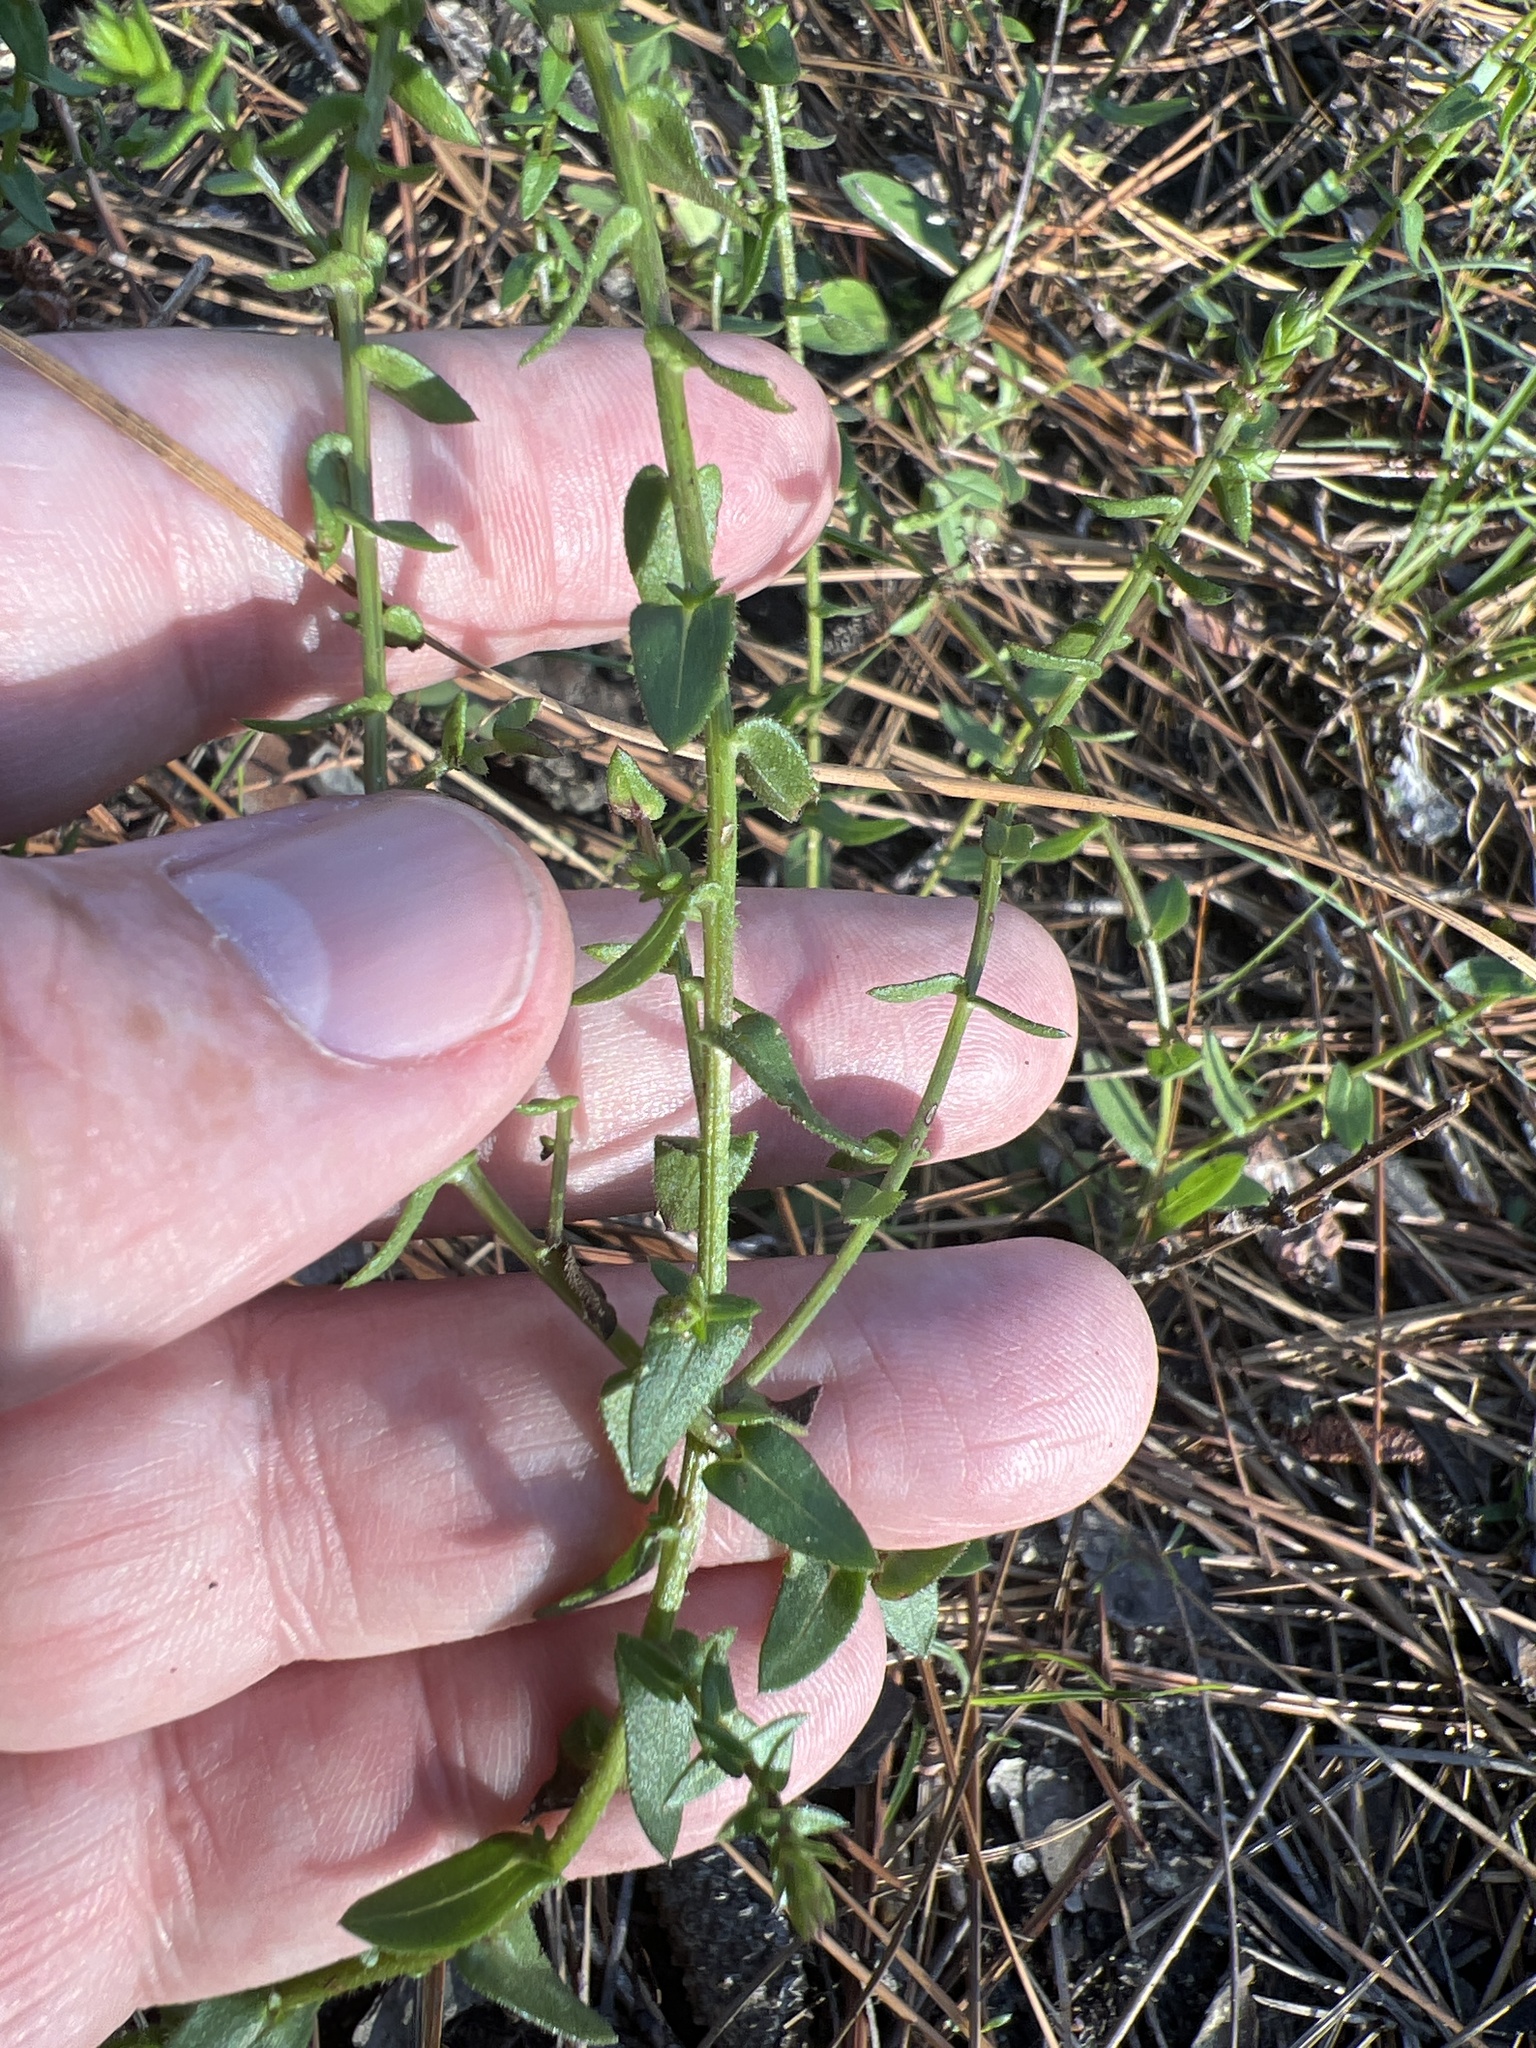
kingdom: Plantae
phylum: Tracheophyta
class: Magnoliopsida
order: Asterales
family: Asteraceae
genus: Symphyotrichum
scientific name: Symphyotrichum walteri
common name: Walter's aster
